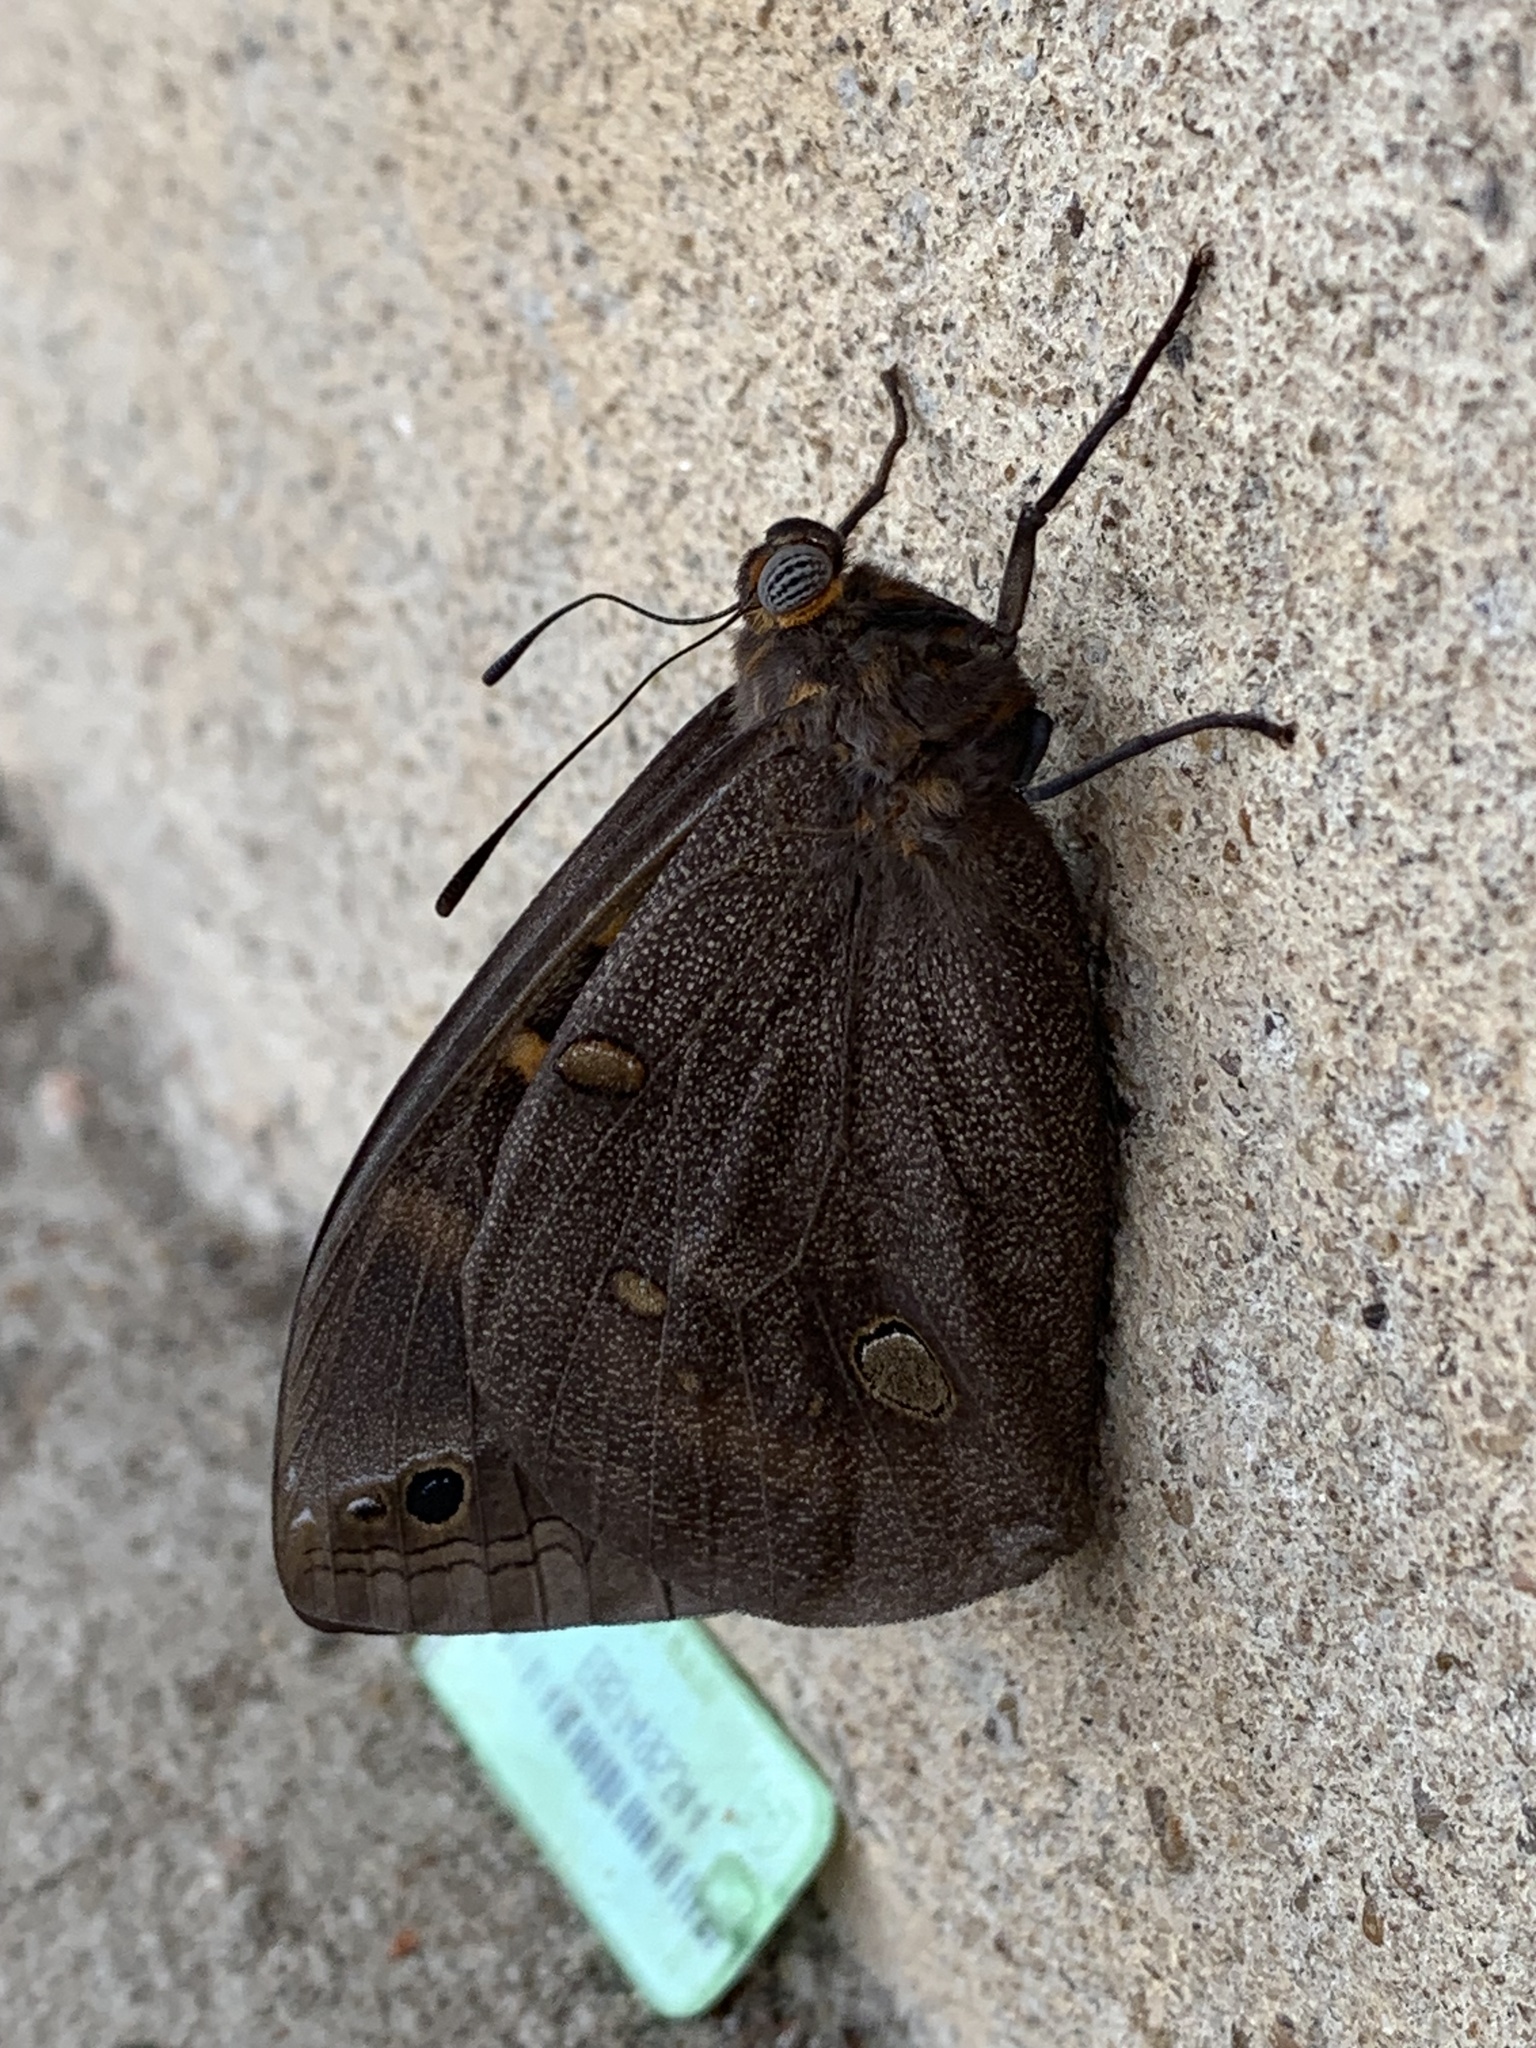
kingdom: Animalia
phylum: Arthropoda
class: Insecta
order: Lepidoptera
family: Nymphalidae
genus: Brassolis
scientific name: Brassolis sophorae
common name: Coconut caterpillar
